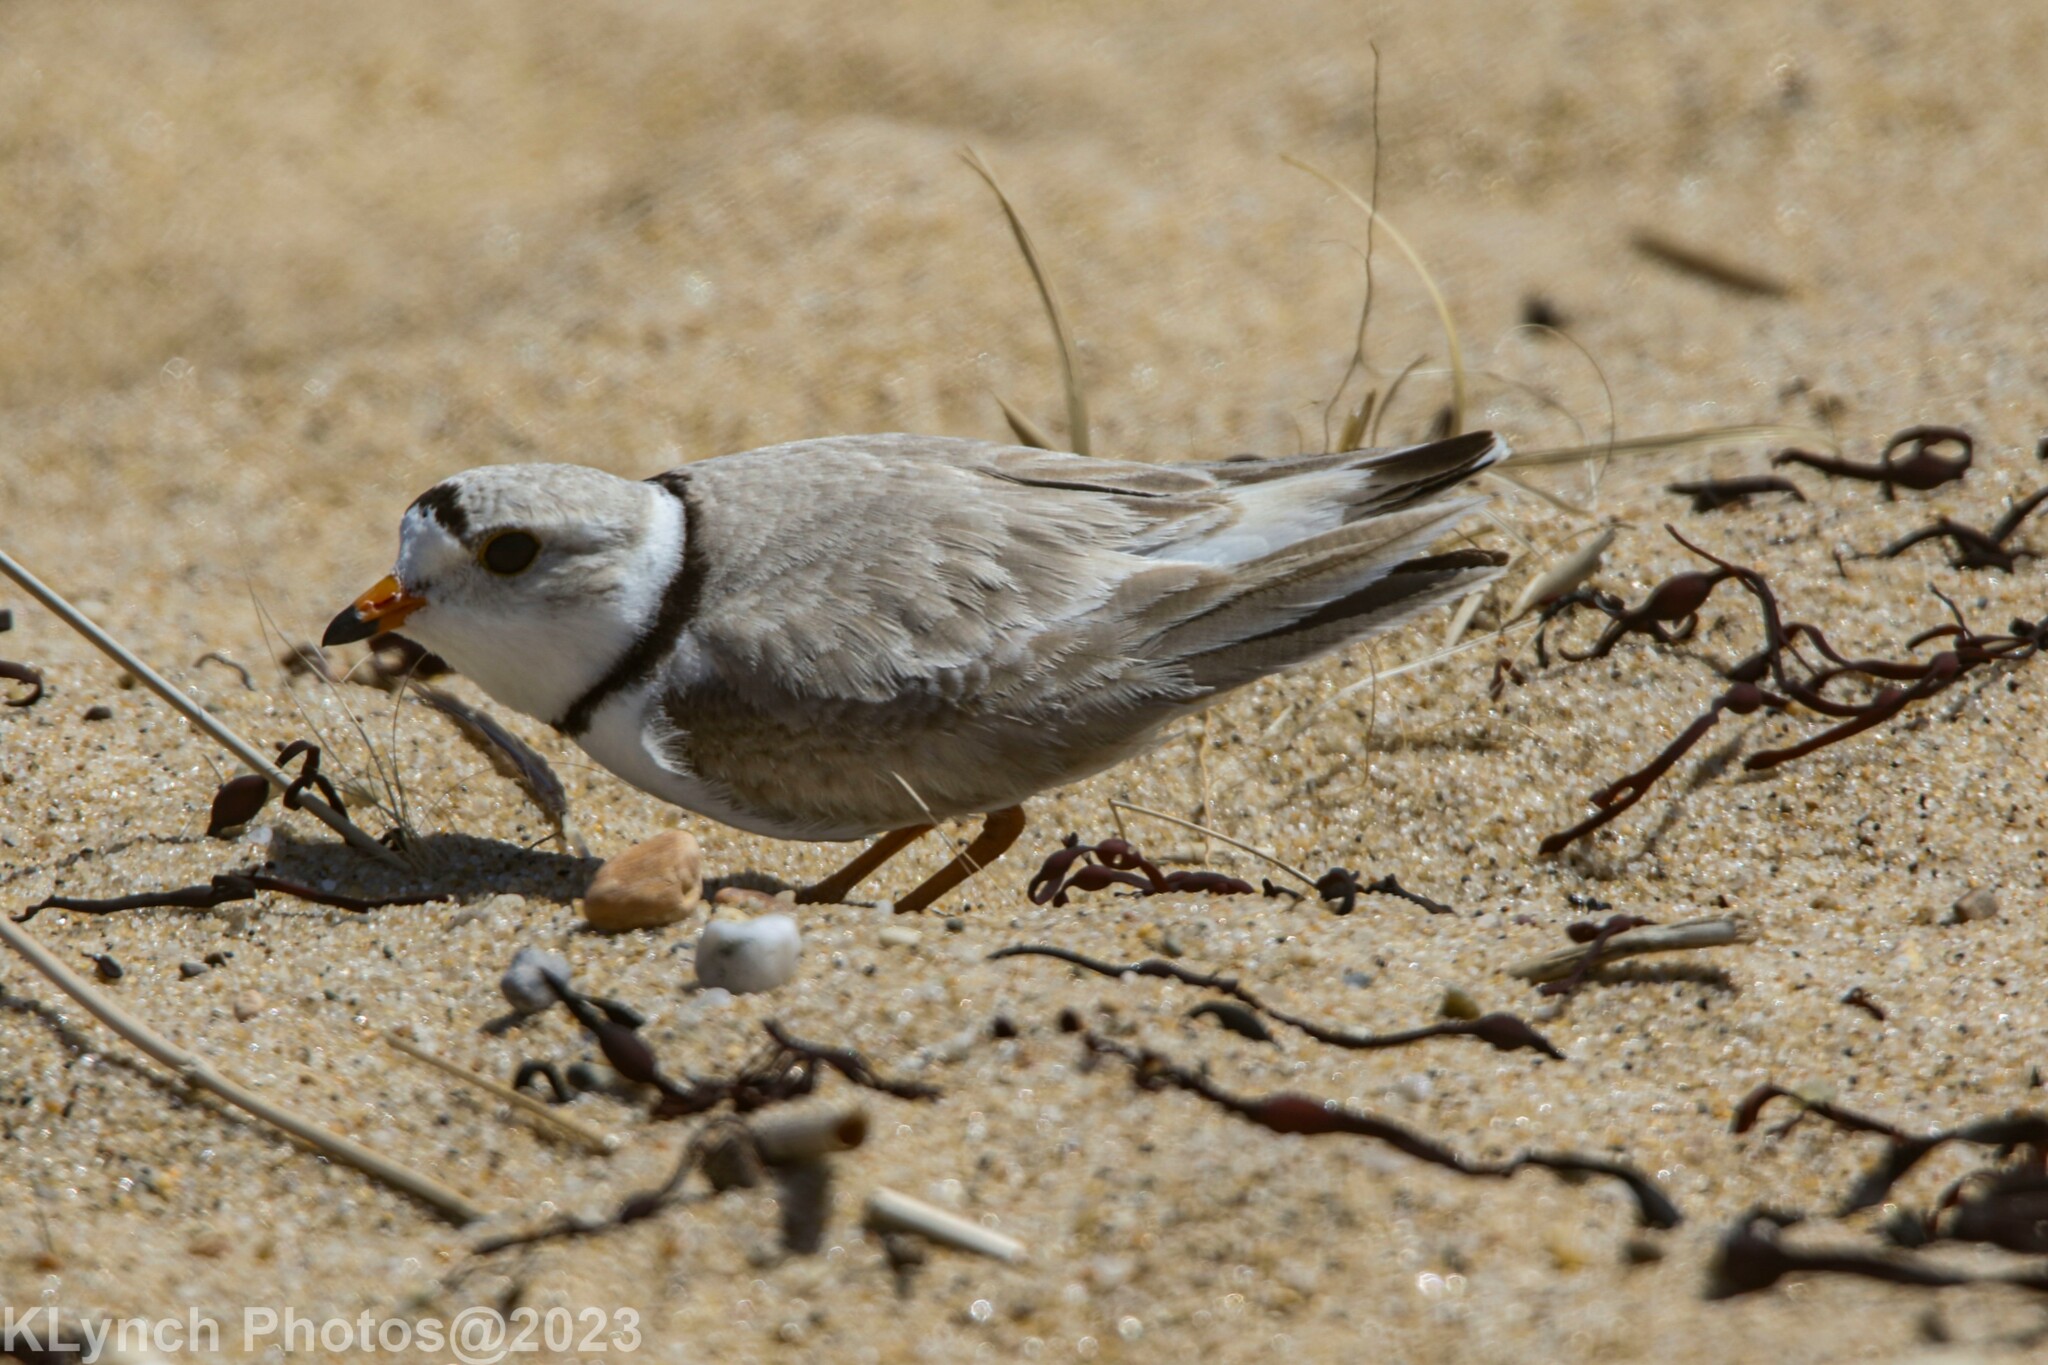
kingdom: Animalia
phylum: Chordata
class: Aves
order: Charadriiformes
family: Charadriidae
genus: Charadrius
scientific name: Charadrius melodus
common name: Piping plover
